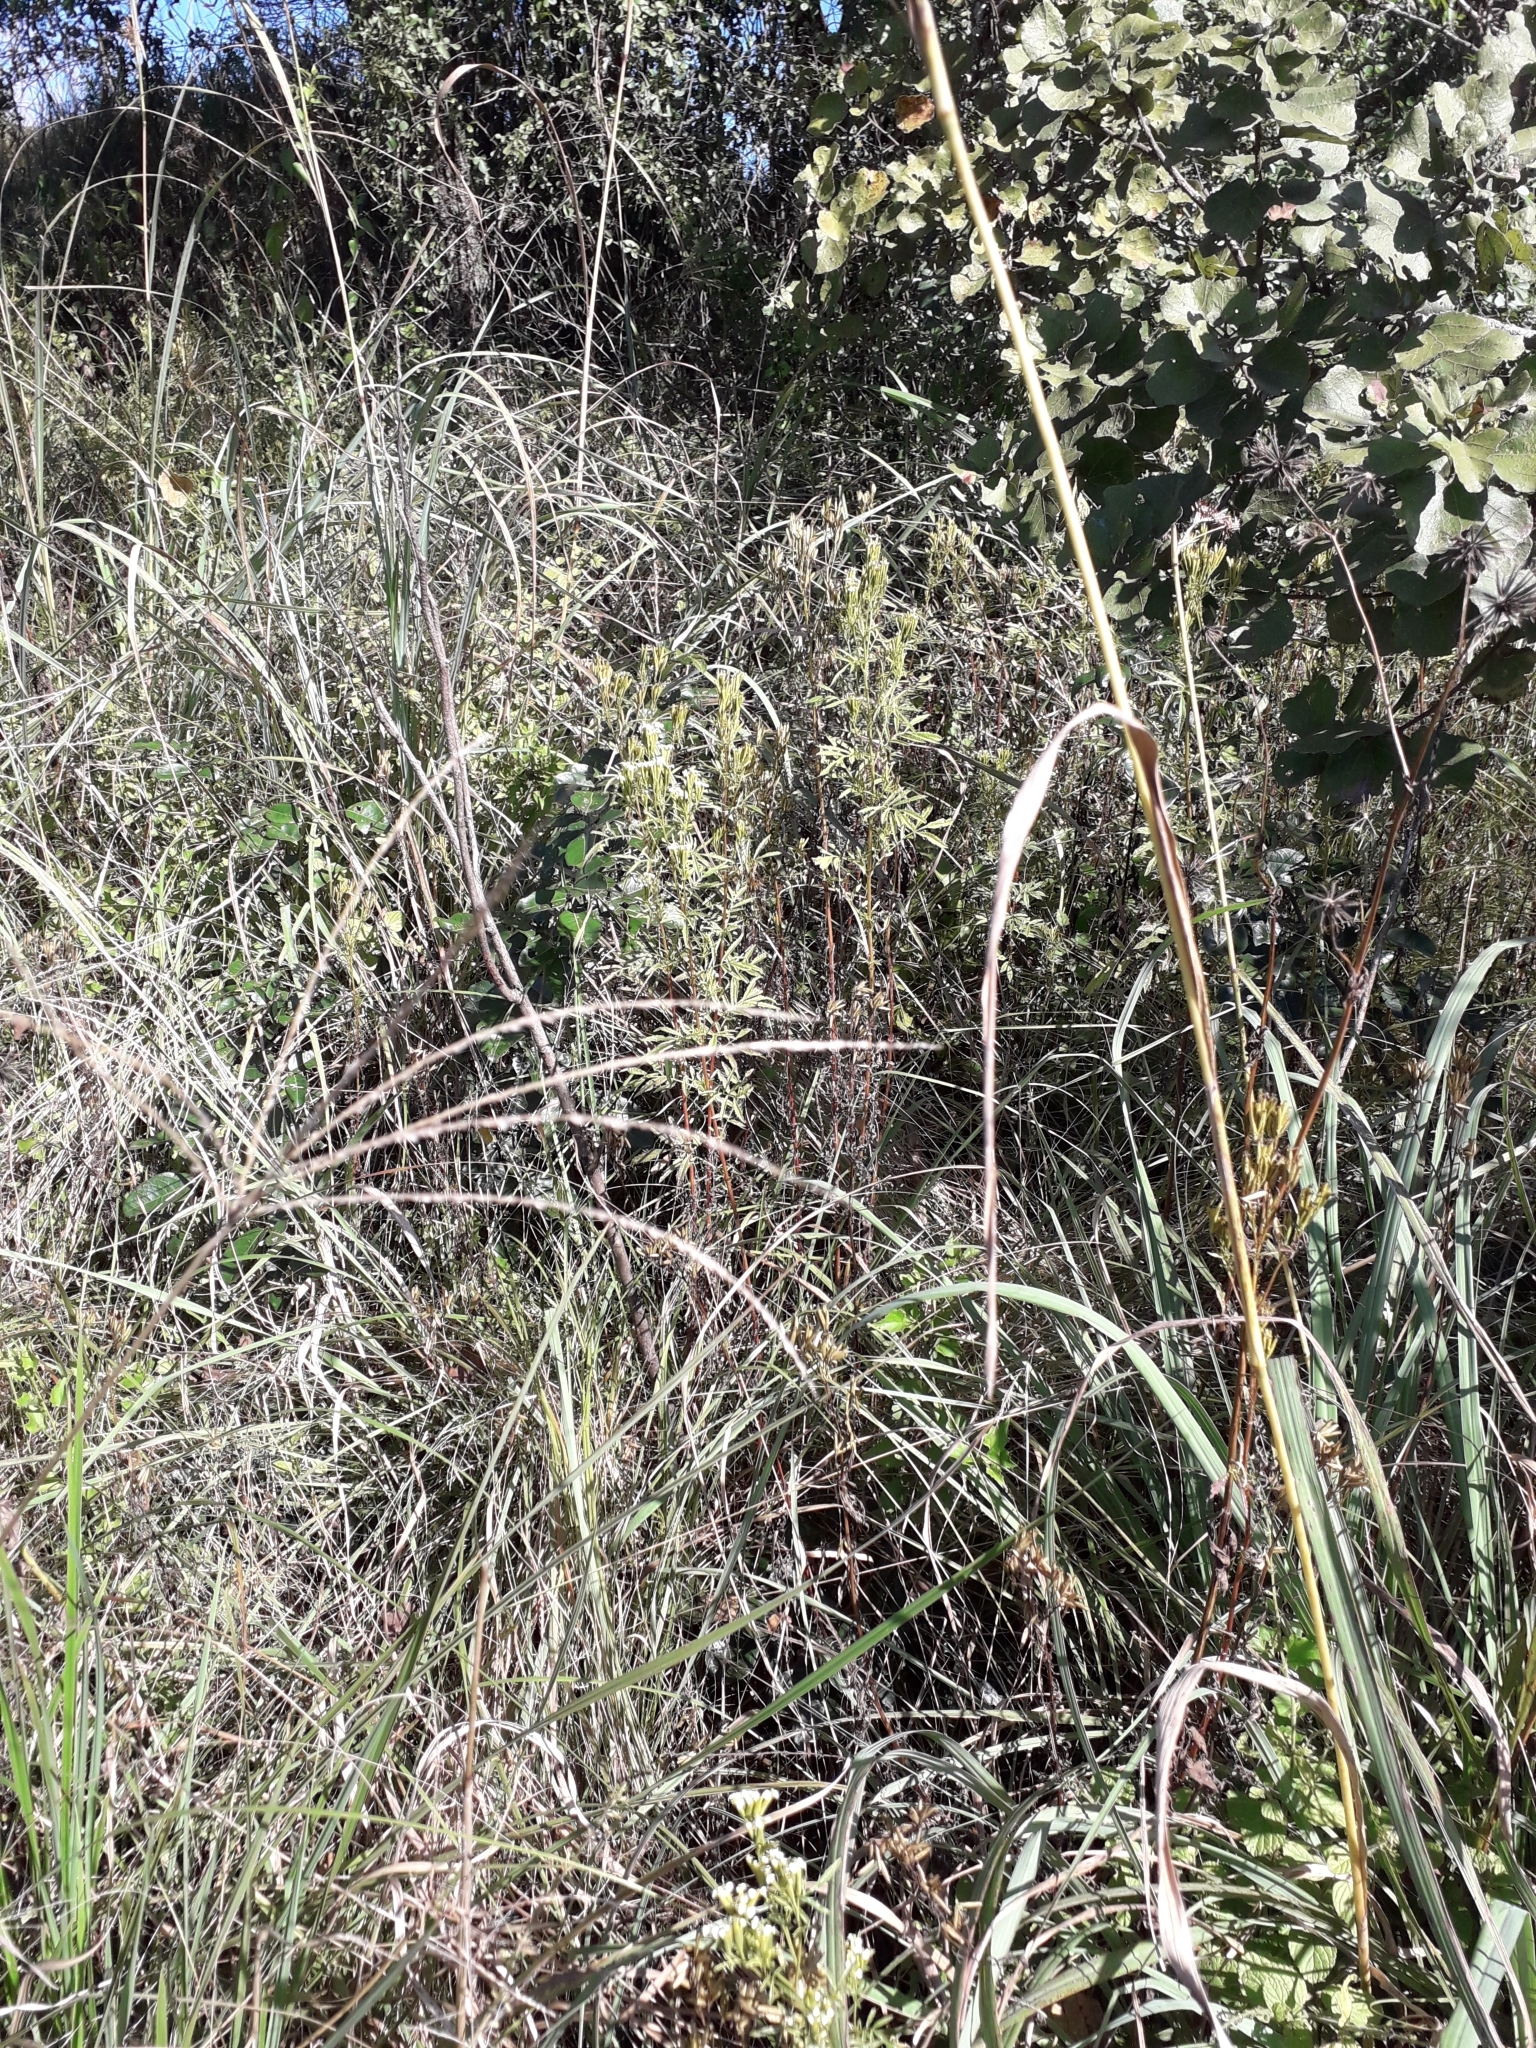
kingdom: Plantae
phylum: Tracheophyta
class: Magnoliopsida
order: Asterales
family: Asteraceae
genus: Tagetes
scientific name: Tagetes minuta
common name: Muster john henry
